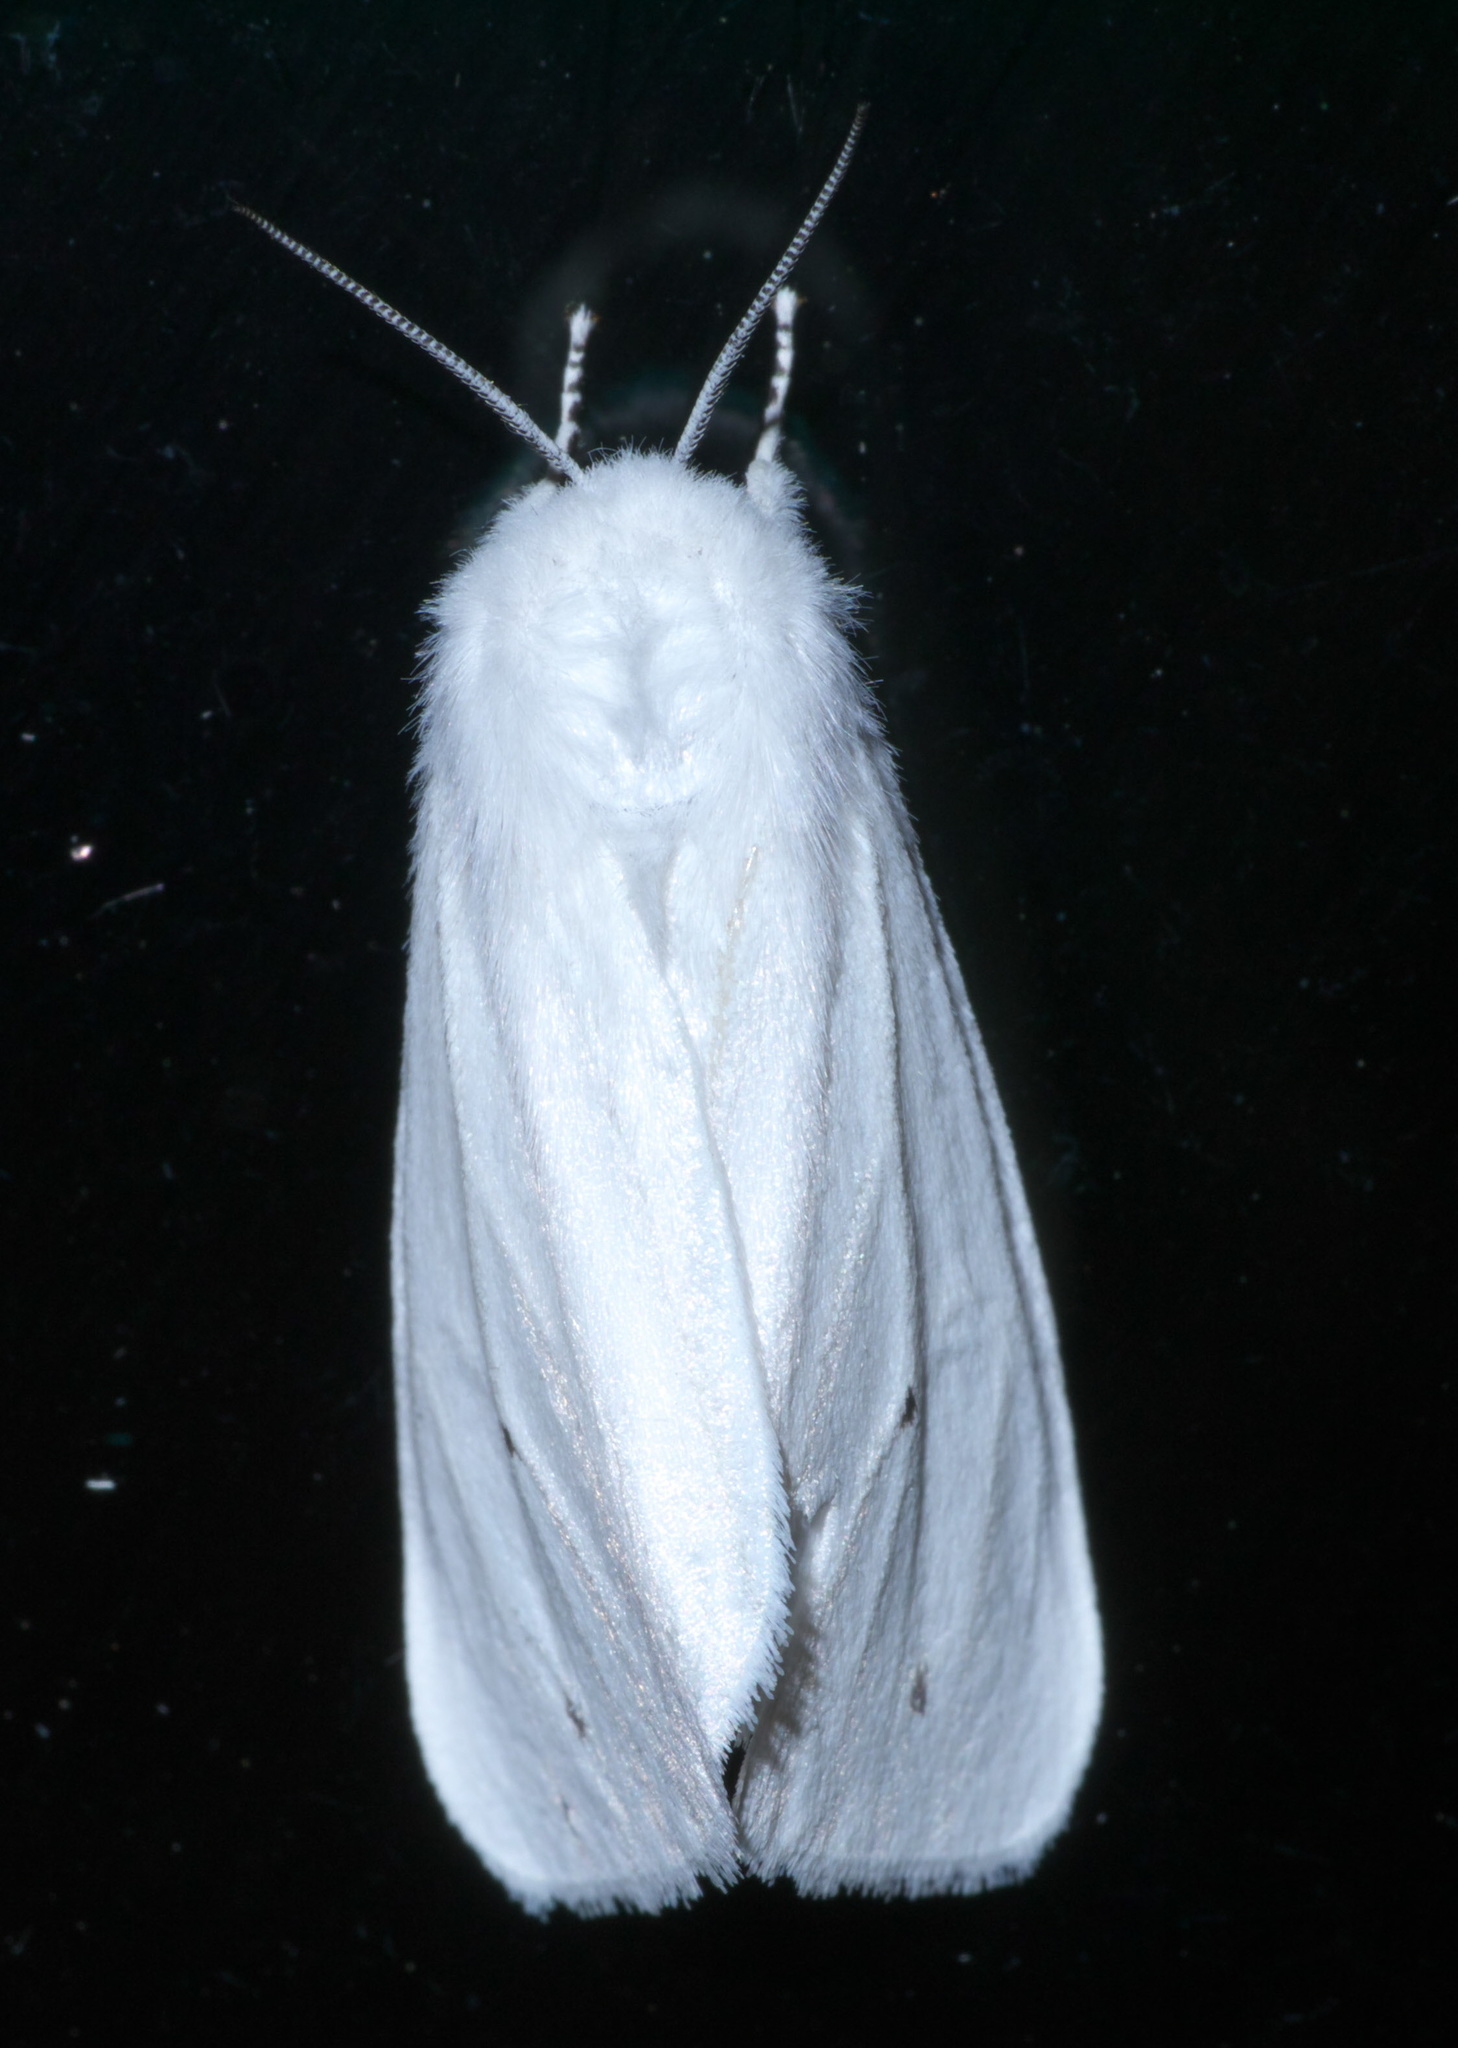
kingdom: Animalia
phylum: Arthropoda
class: Insecta
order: Lepidoptera
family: Erebidae
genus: Spilosoma
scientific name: Spilosoma virginica
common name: Virginia tiger moth
